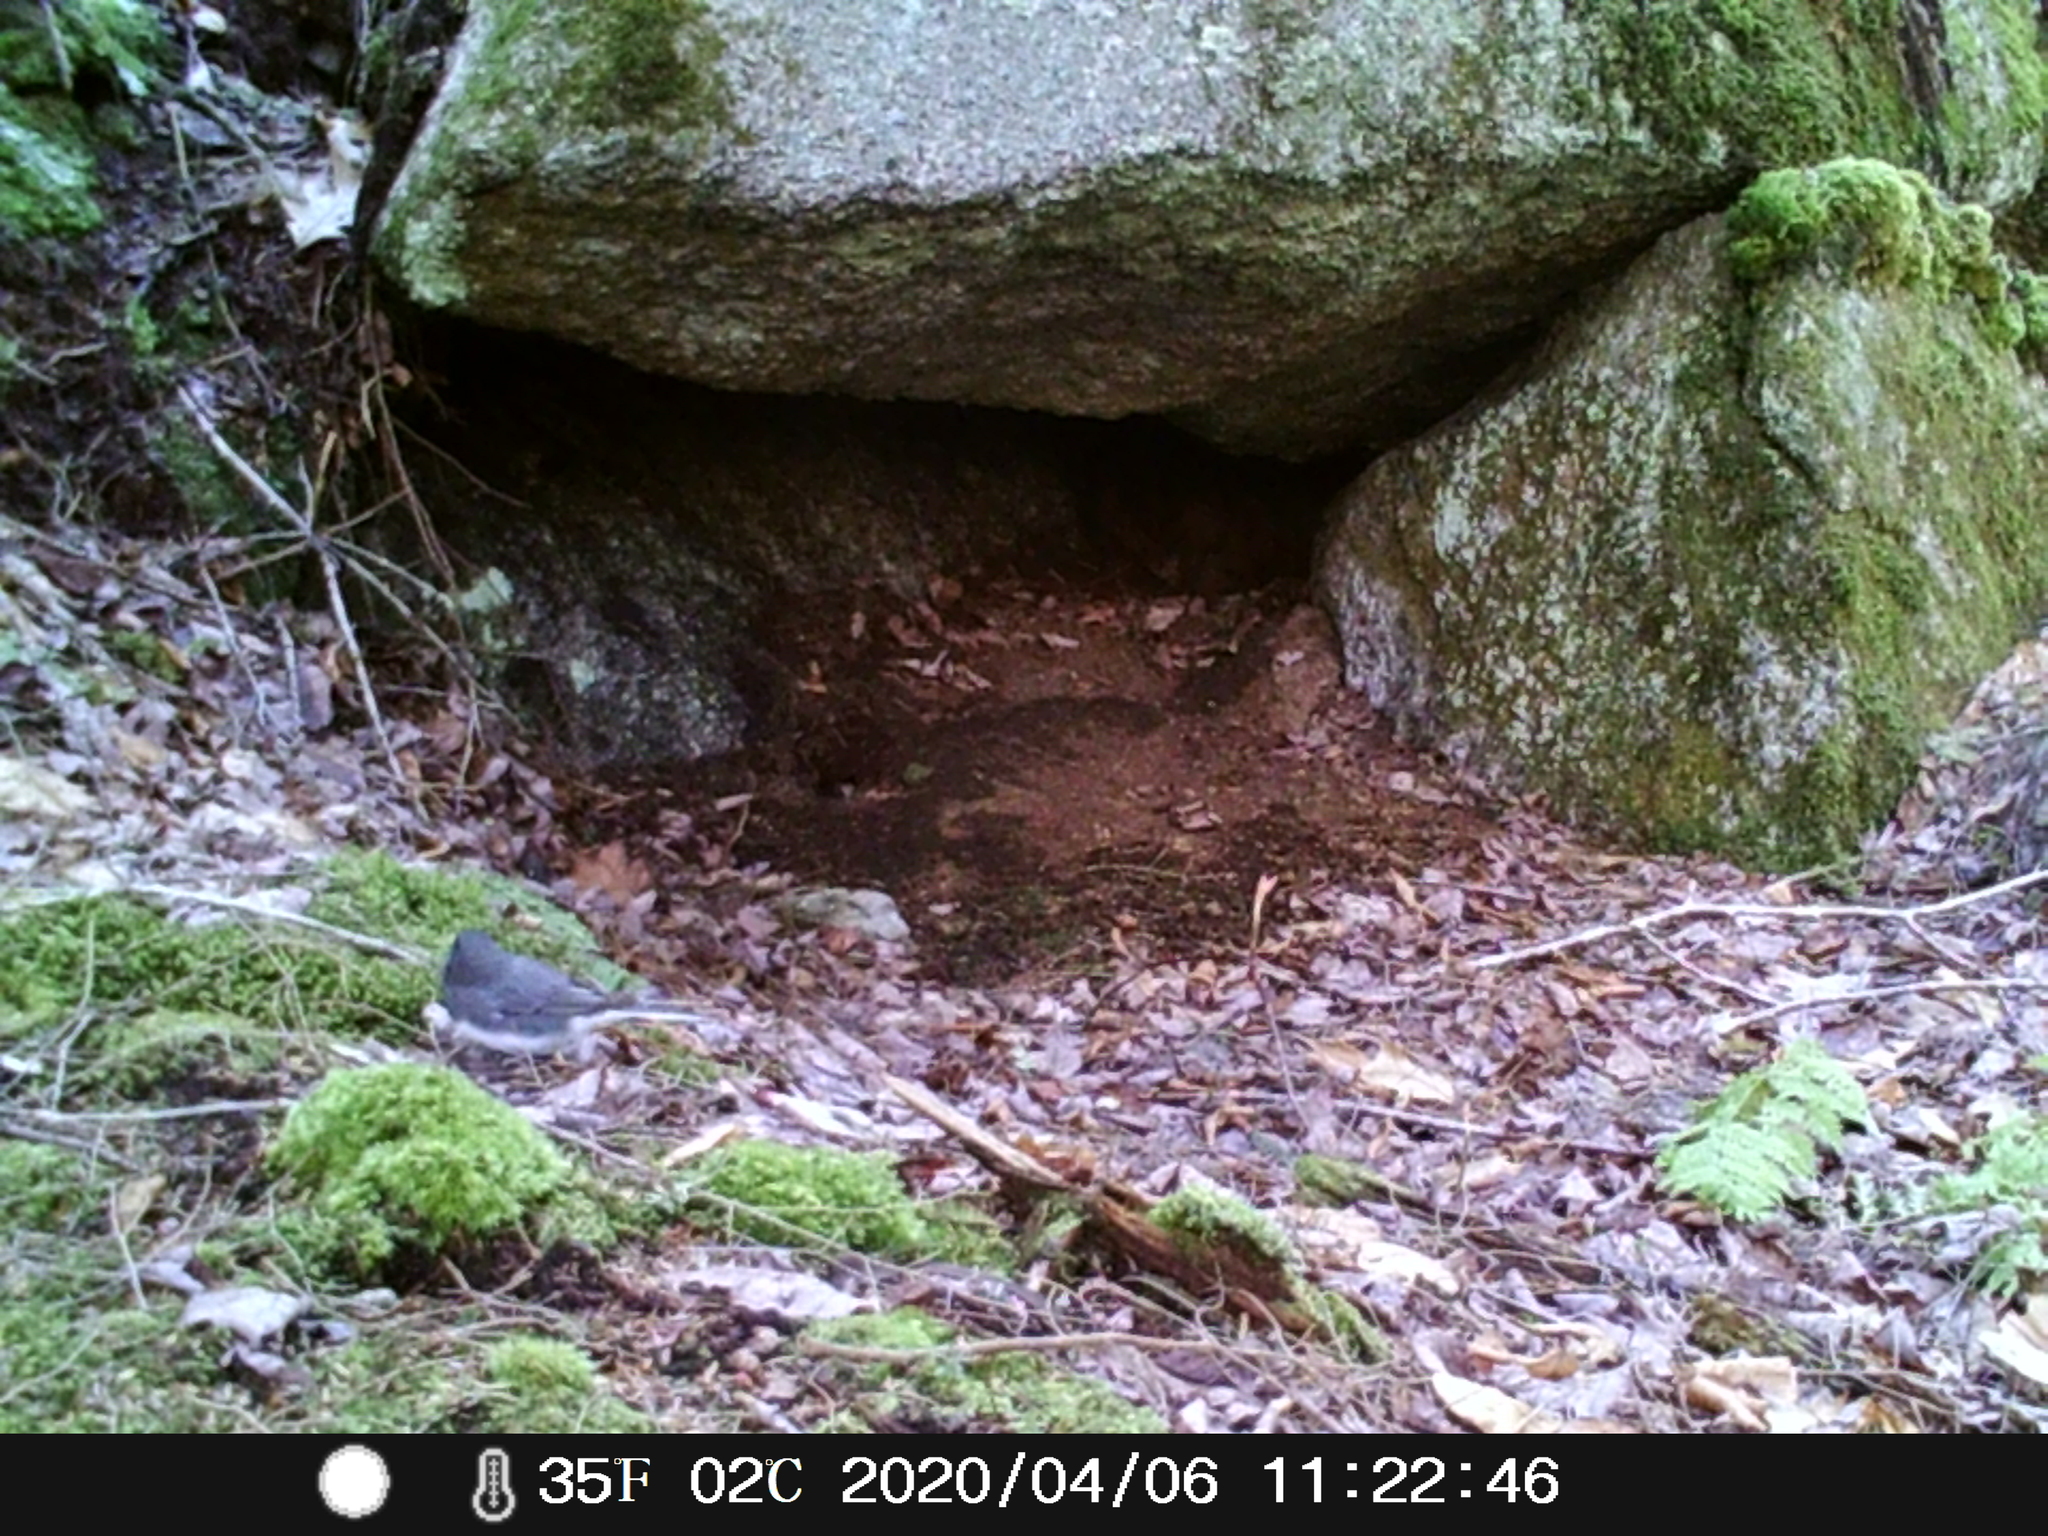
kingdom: Animalia
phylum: Chordata
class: Aves
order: Passeriformes
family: Passerellidae
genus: Junco
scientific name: Junco hyemalis
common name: Dark-eyed junco
